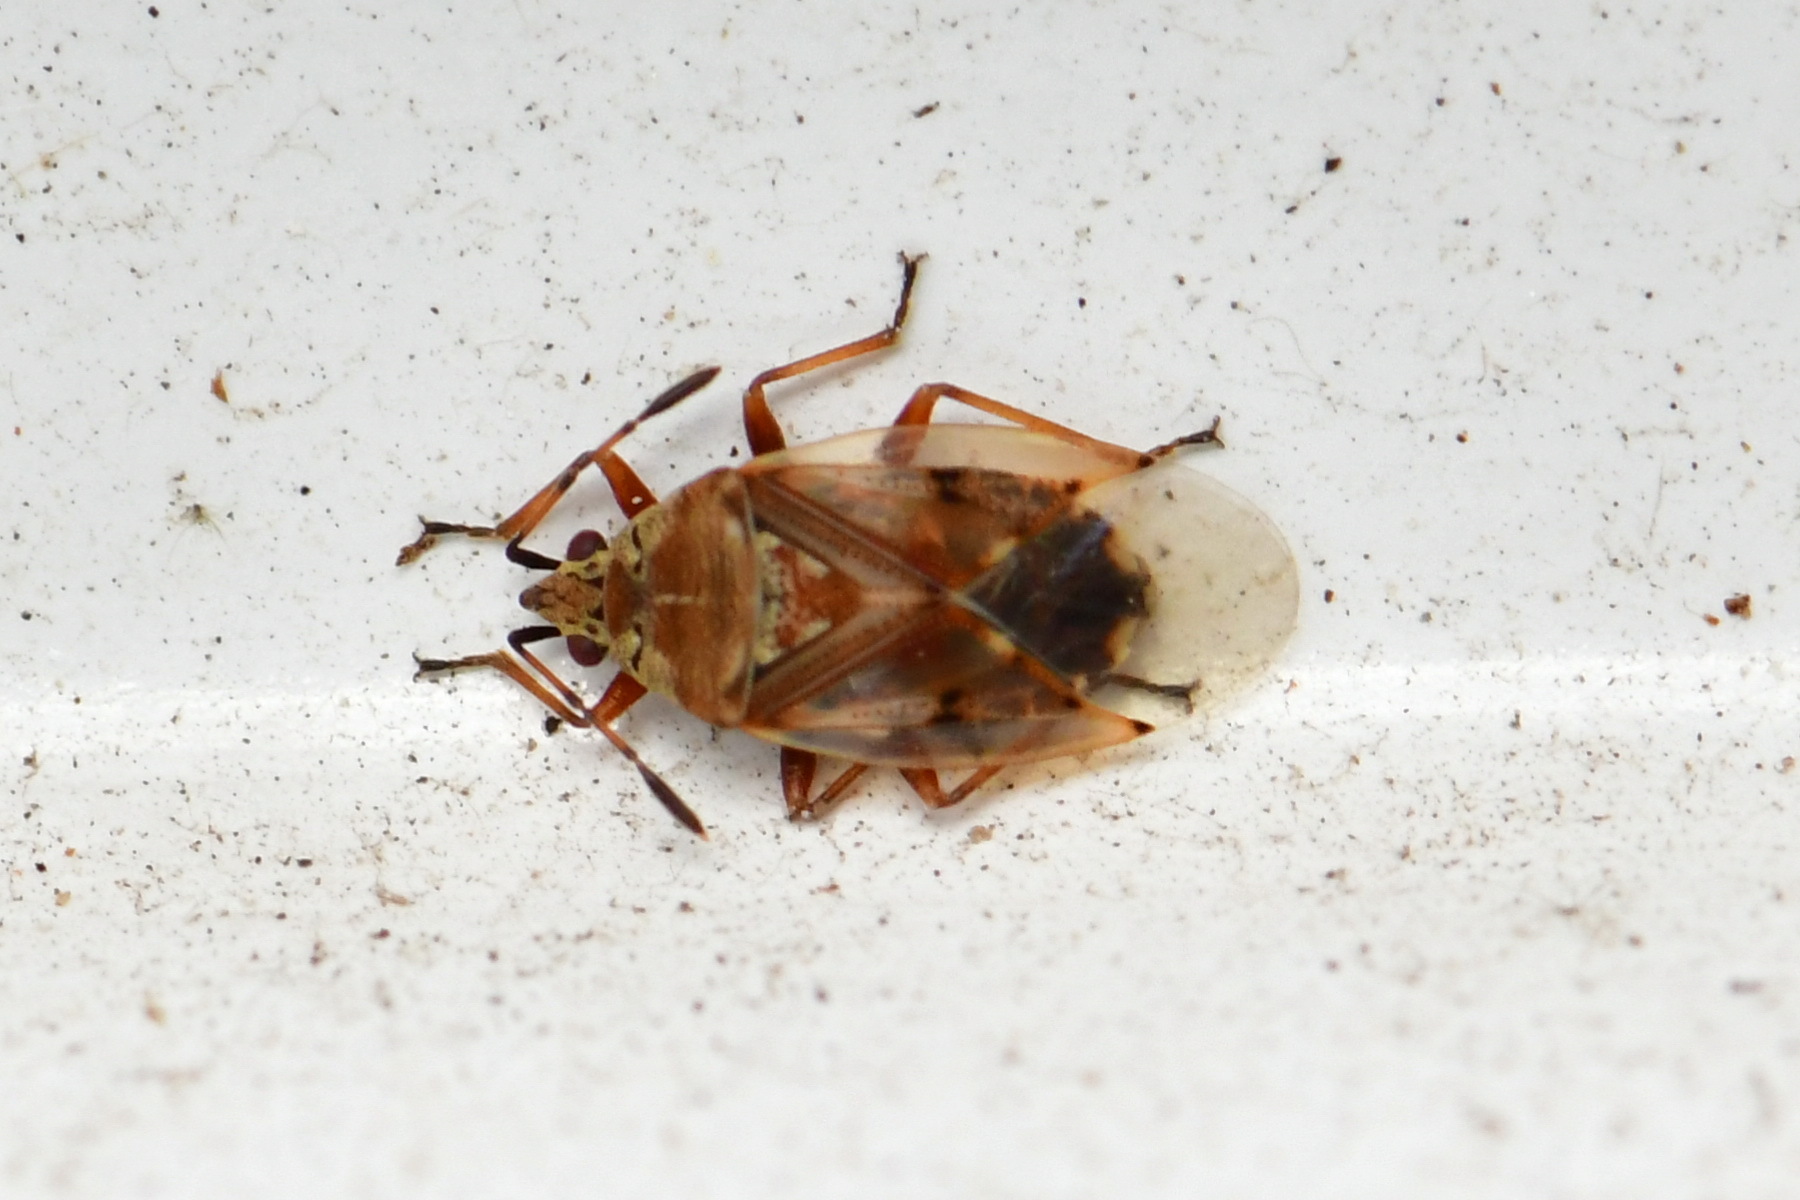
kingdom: Animalia
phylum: Arthropoda
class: Insecta
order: Hemiptera
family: Lygaeidae
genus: Kleidocerys
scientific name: Kleidocerys resedae
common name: Birch catkin bug
